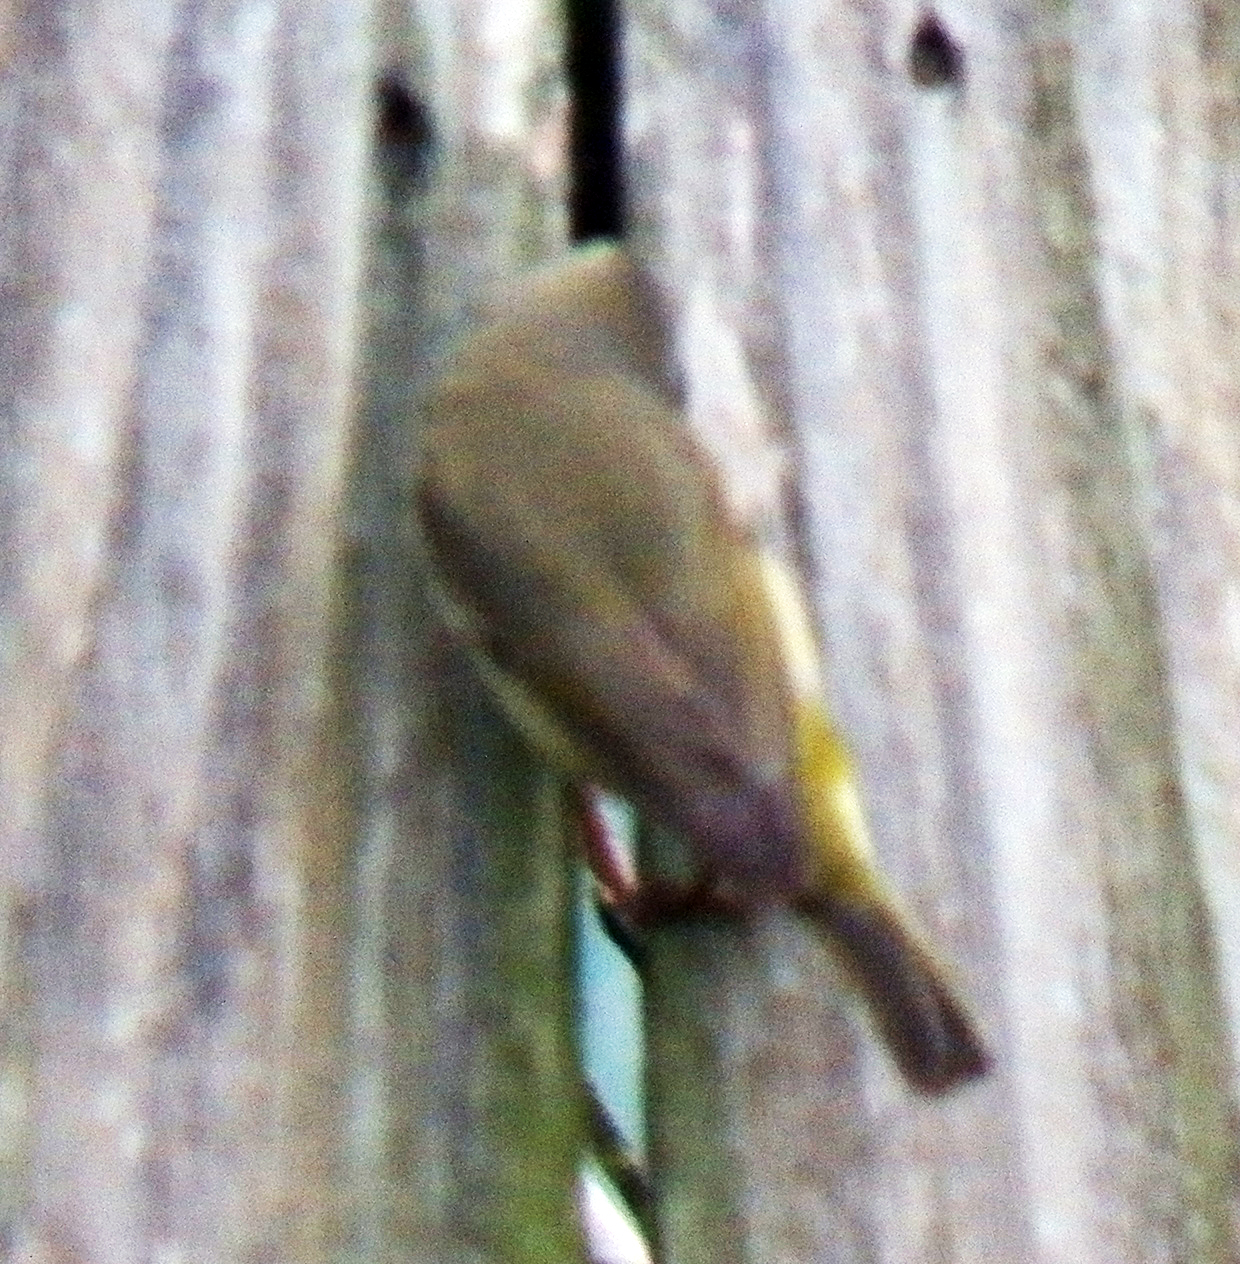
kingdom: Animalia
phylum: Chordata
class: Aves
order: Passeriformes
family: Parulidae
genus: Leiothlypis
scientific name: Leiothlypis celata
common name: Orange-crowned warbler
